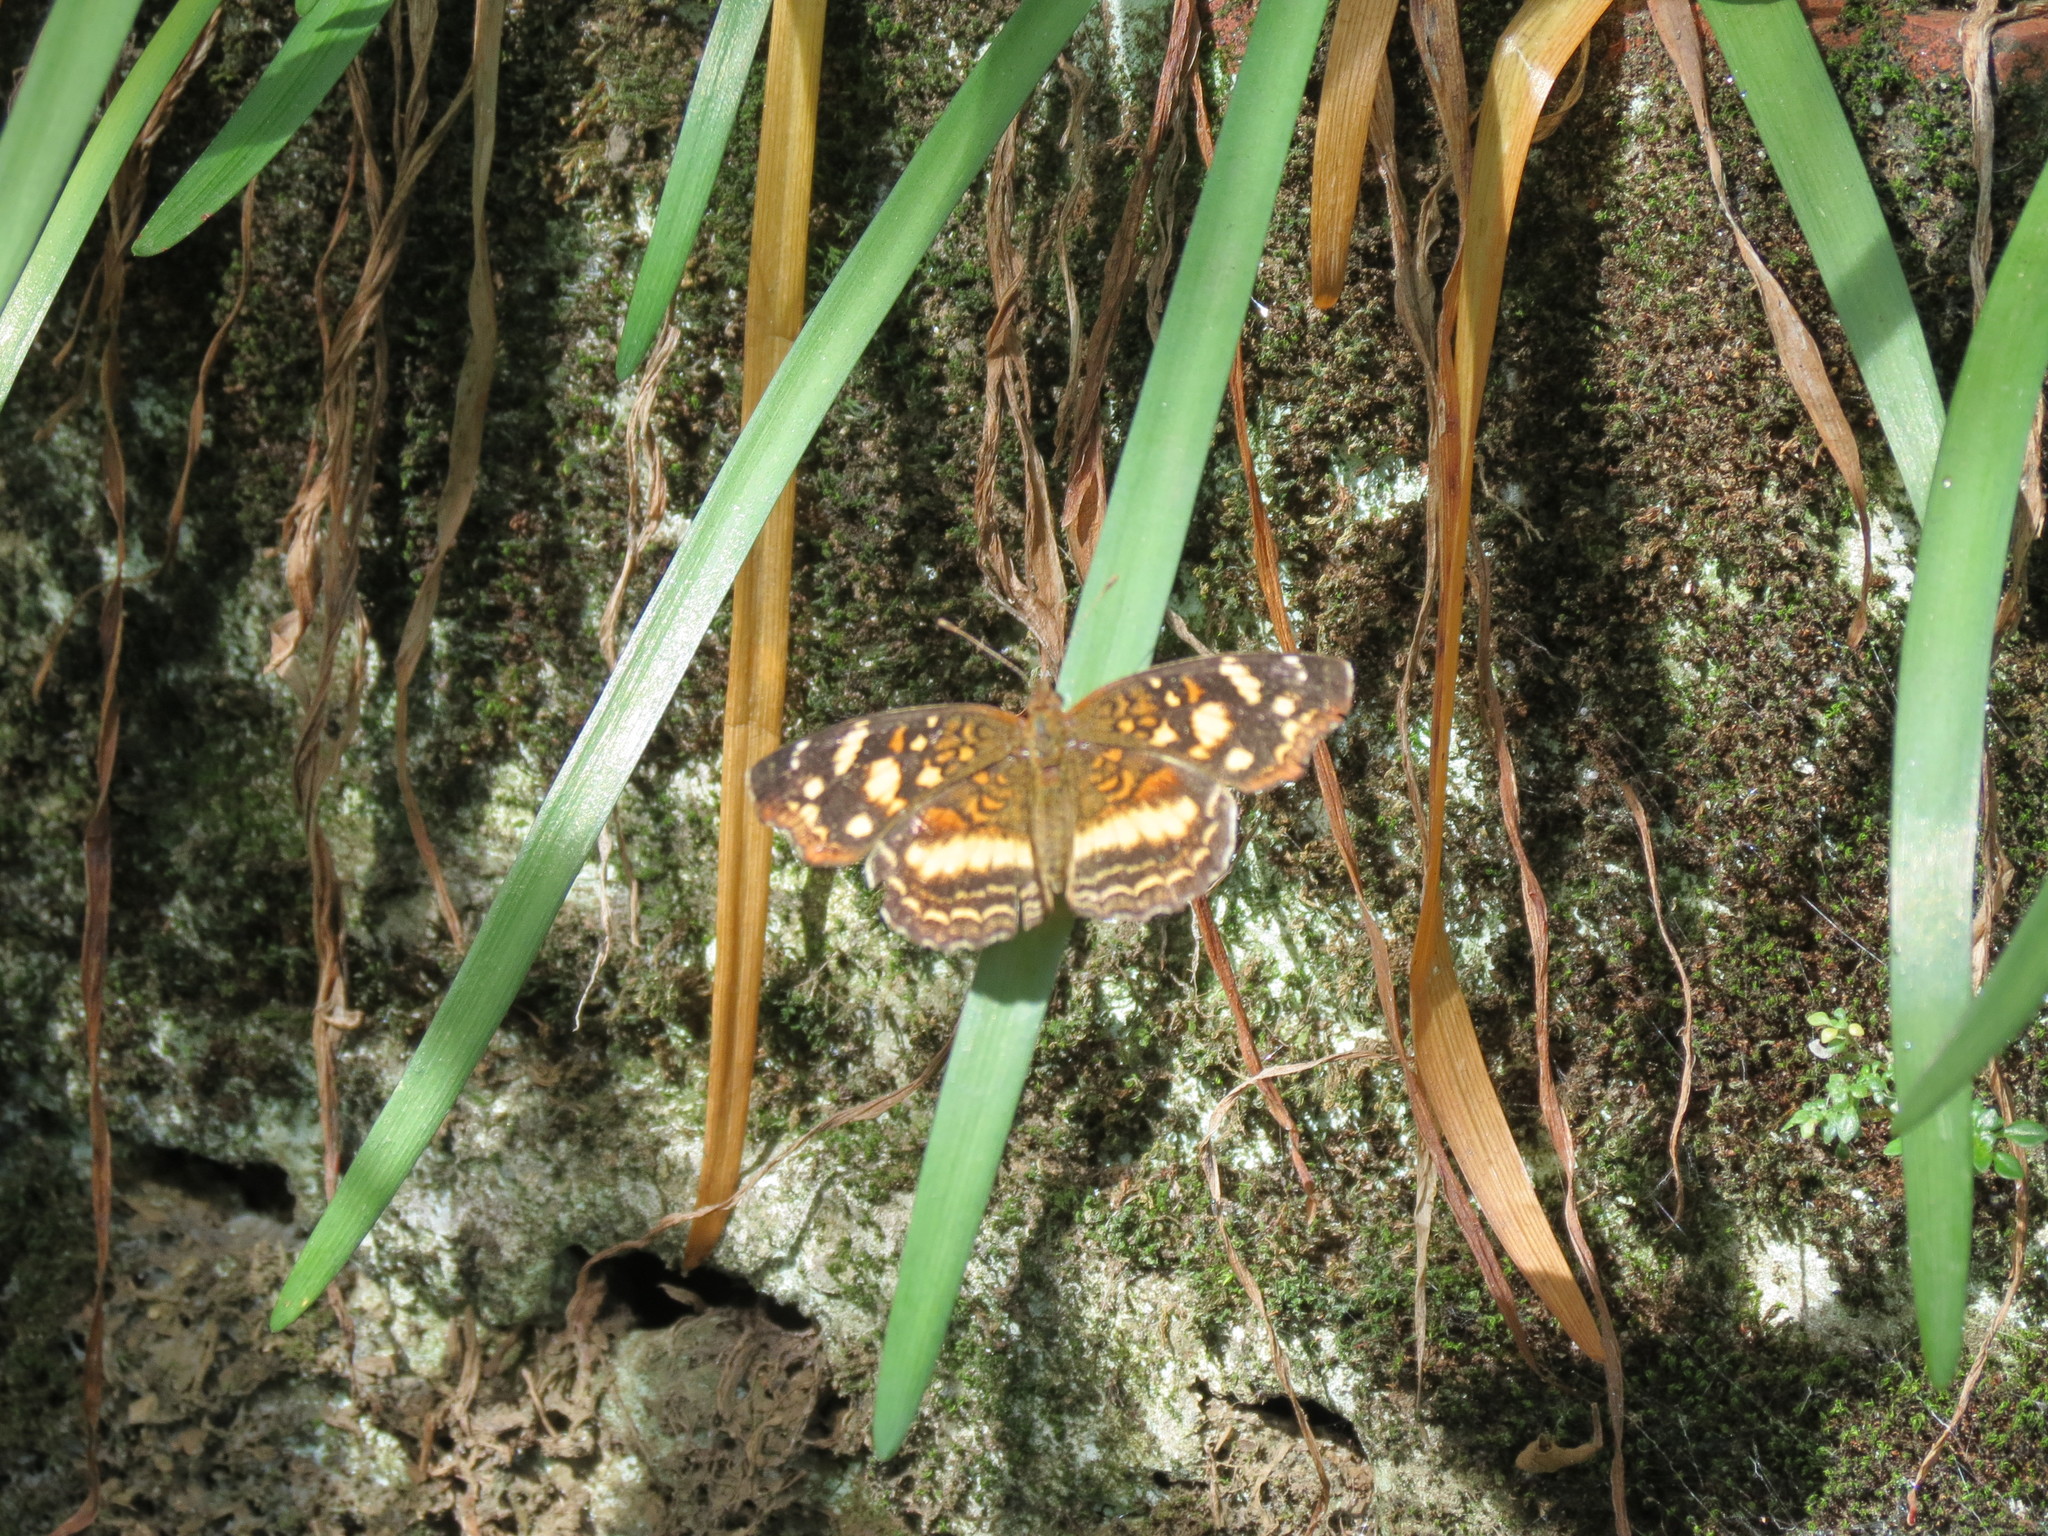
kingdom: Animalia
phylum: Arthropoda
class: Insecta
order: Lepidoptera
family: Nymphalidae
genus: Anthanassa
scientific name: Anthanassa drusilla
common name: Orange-patched crescent
